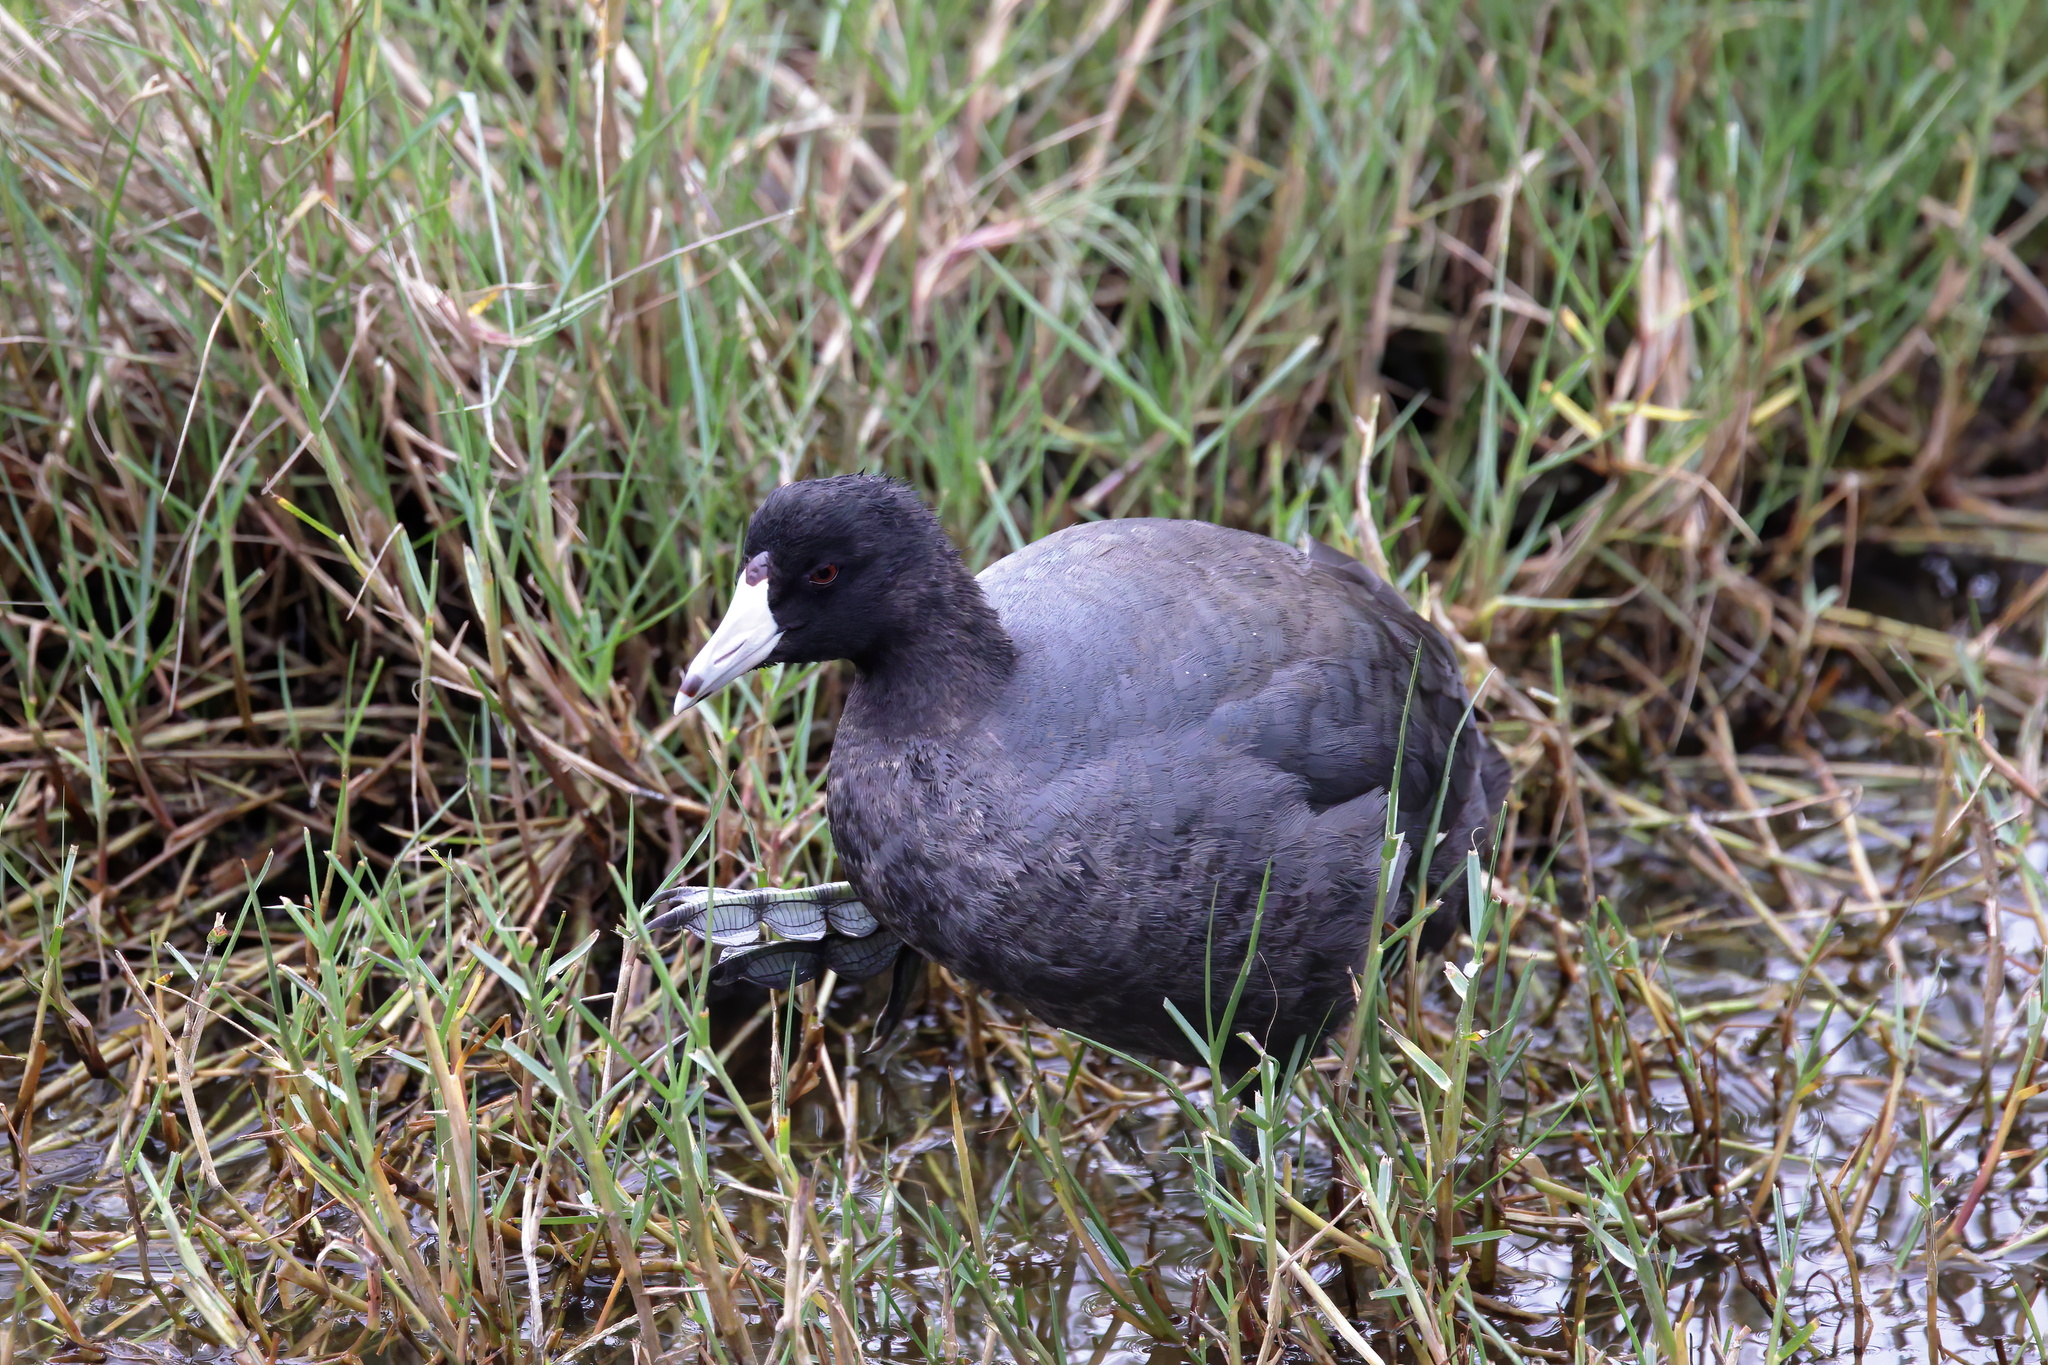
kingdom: Animalia
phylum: Chordata
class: Aves
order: Gruiformes
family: Rallidae
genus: Fulica
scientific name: Fulica americana
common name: American coot
